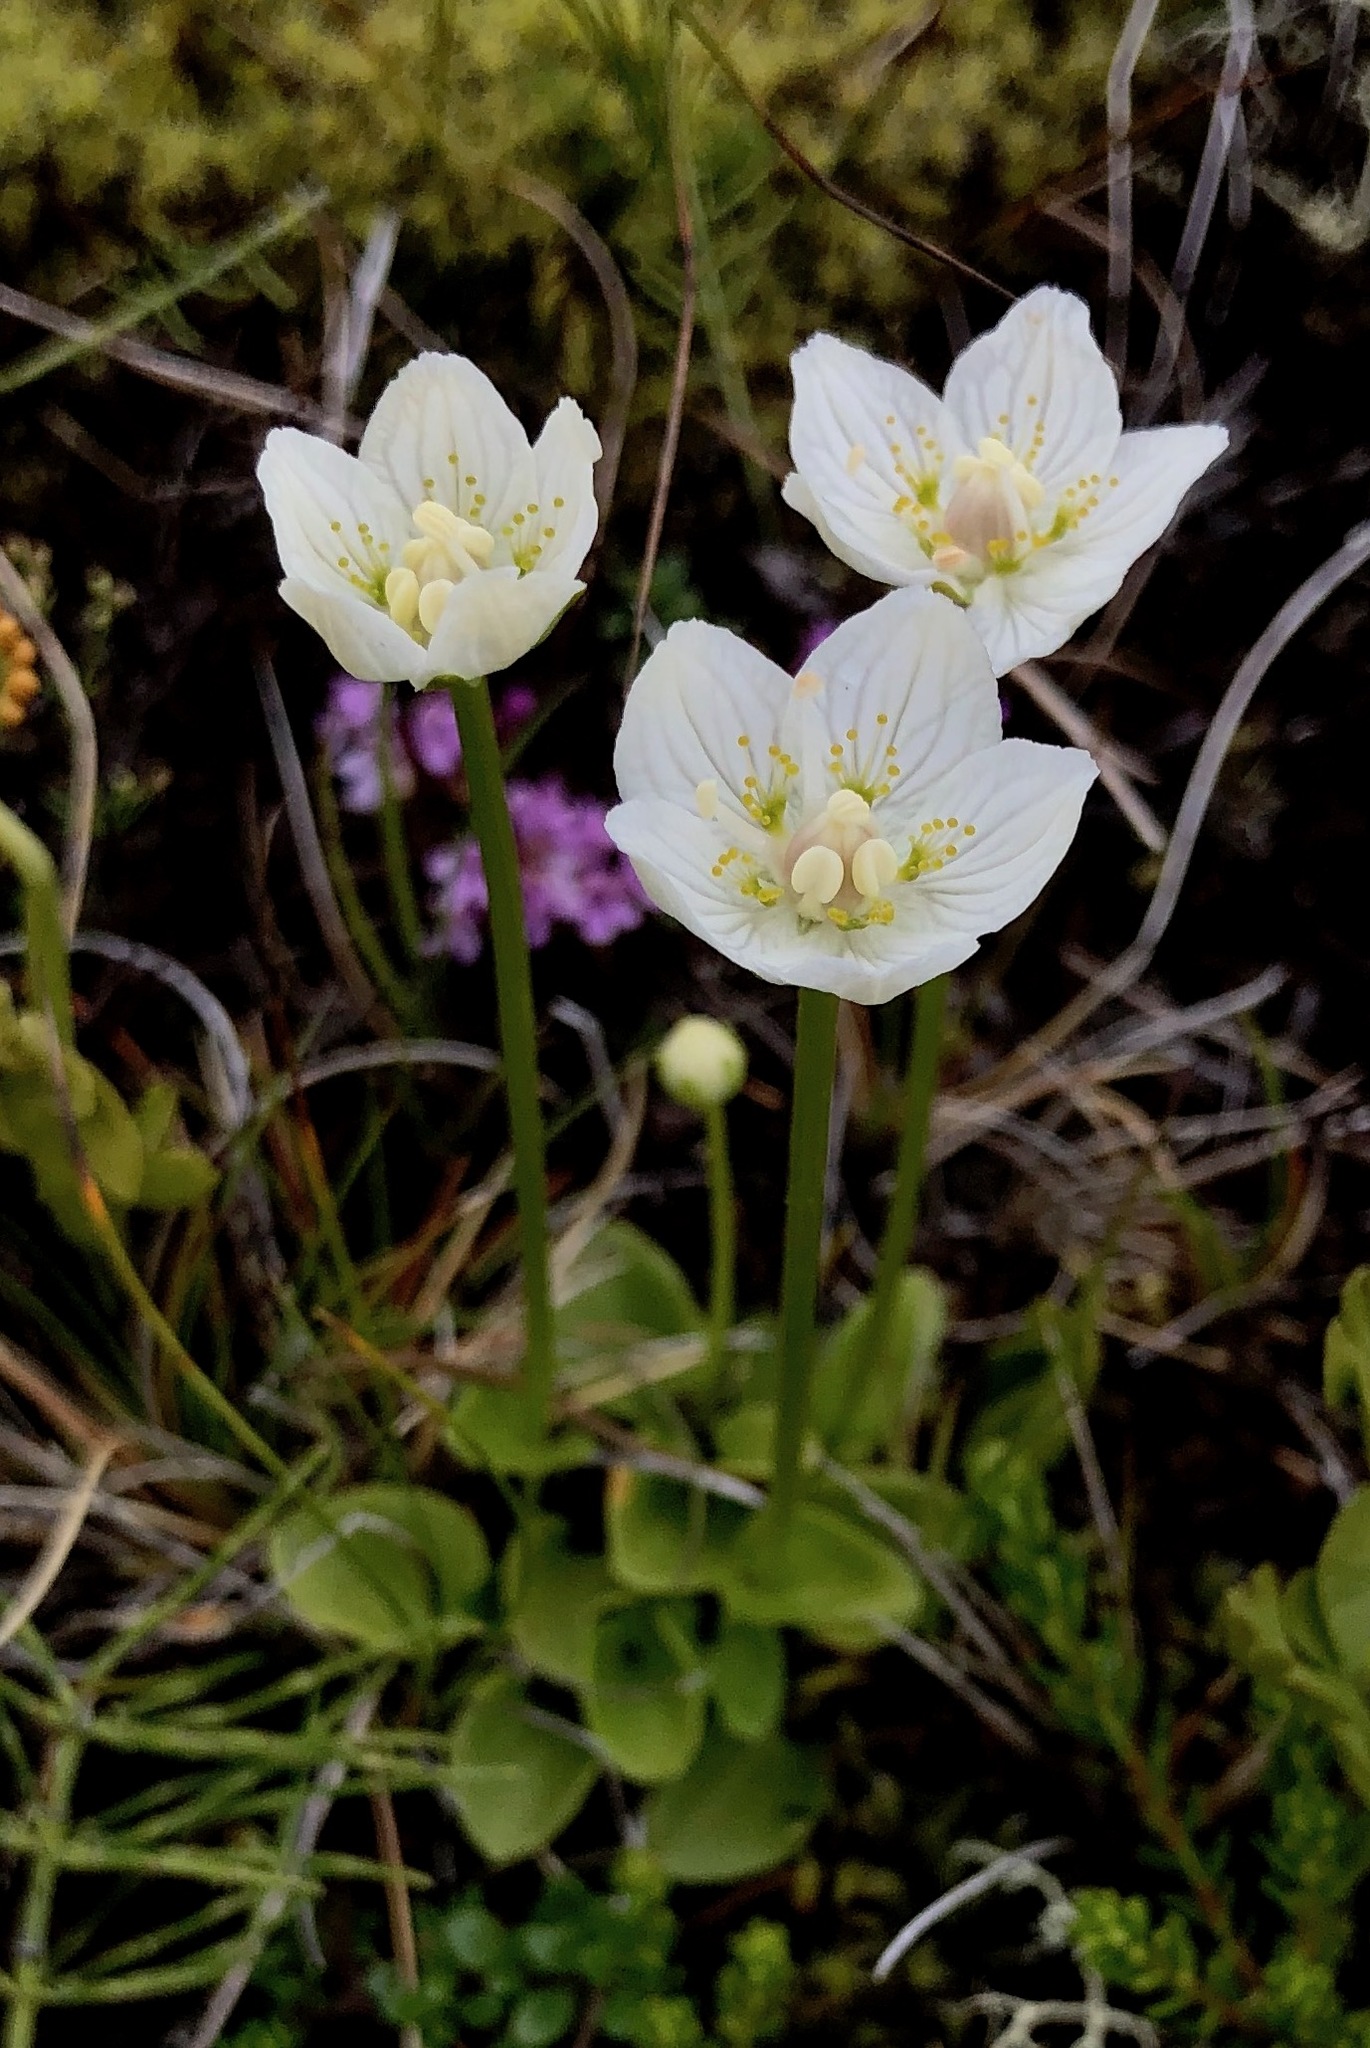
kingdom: Plantae
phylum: Tracheophyta
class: Magnoliopsida
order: Celastrales
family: Parnassiaceae
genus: Parnassia
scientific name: Parnassia palustris
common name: Grass-of-parnassus
